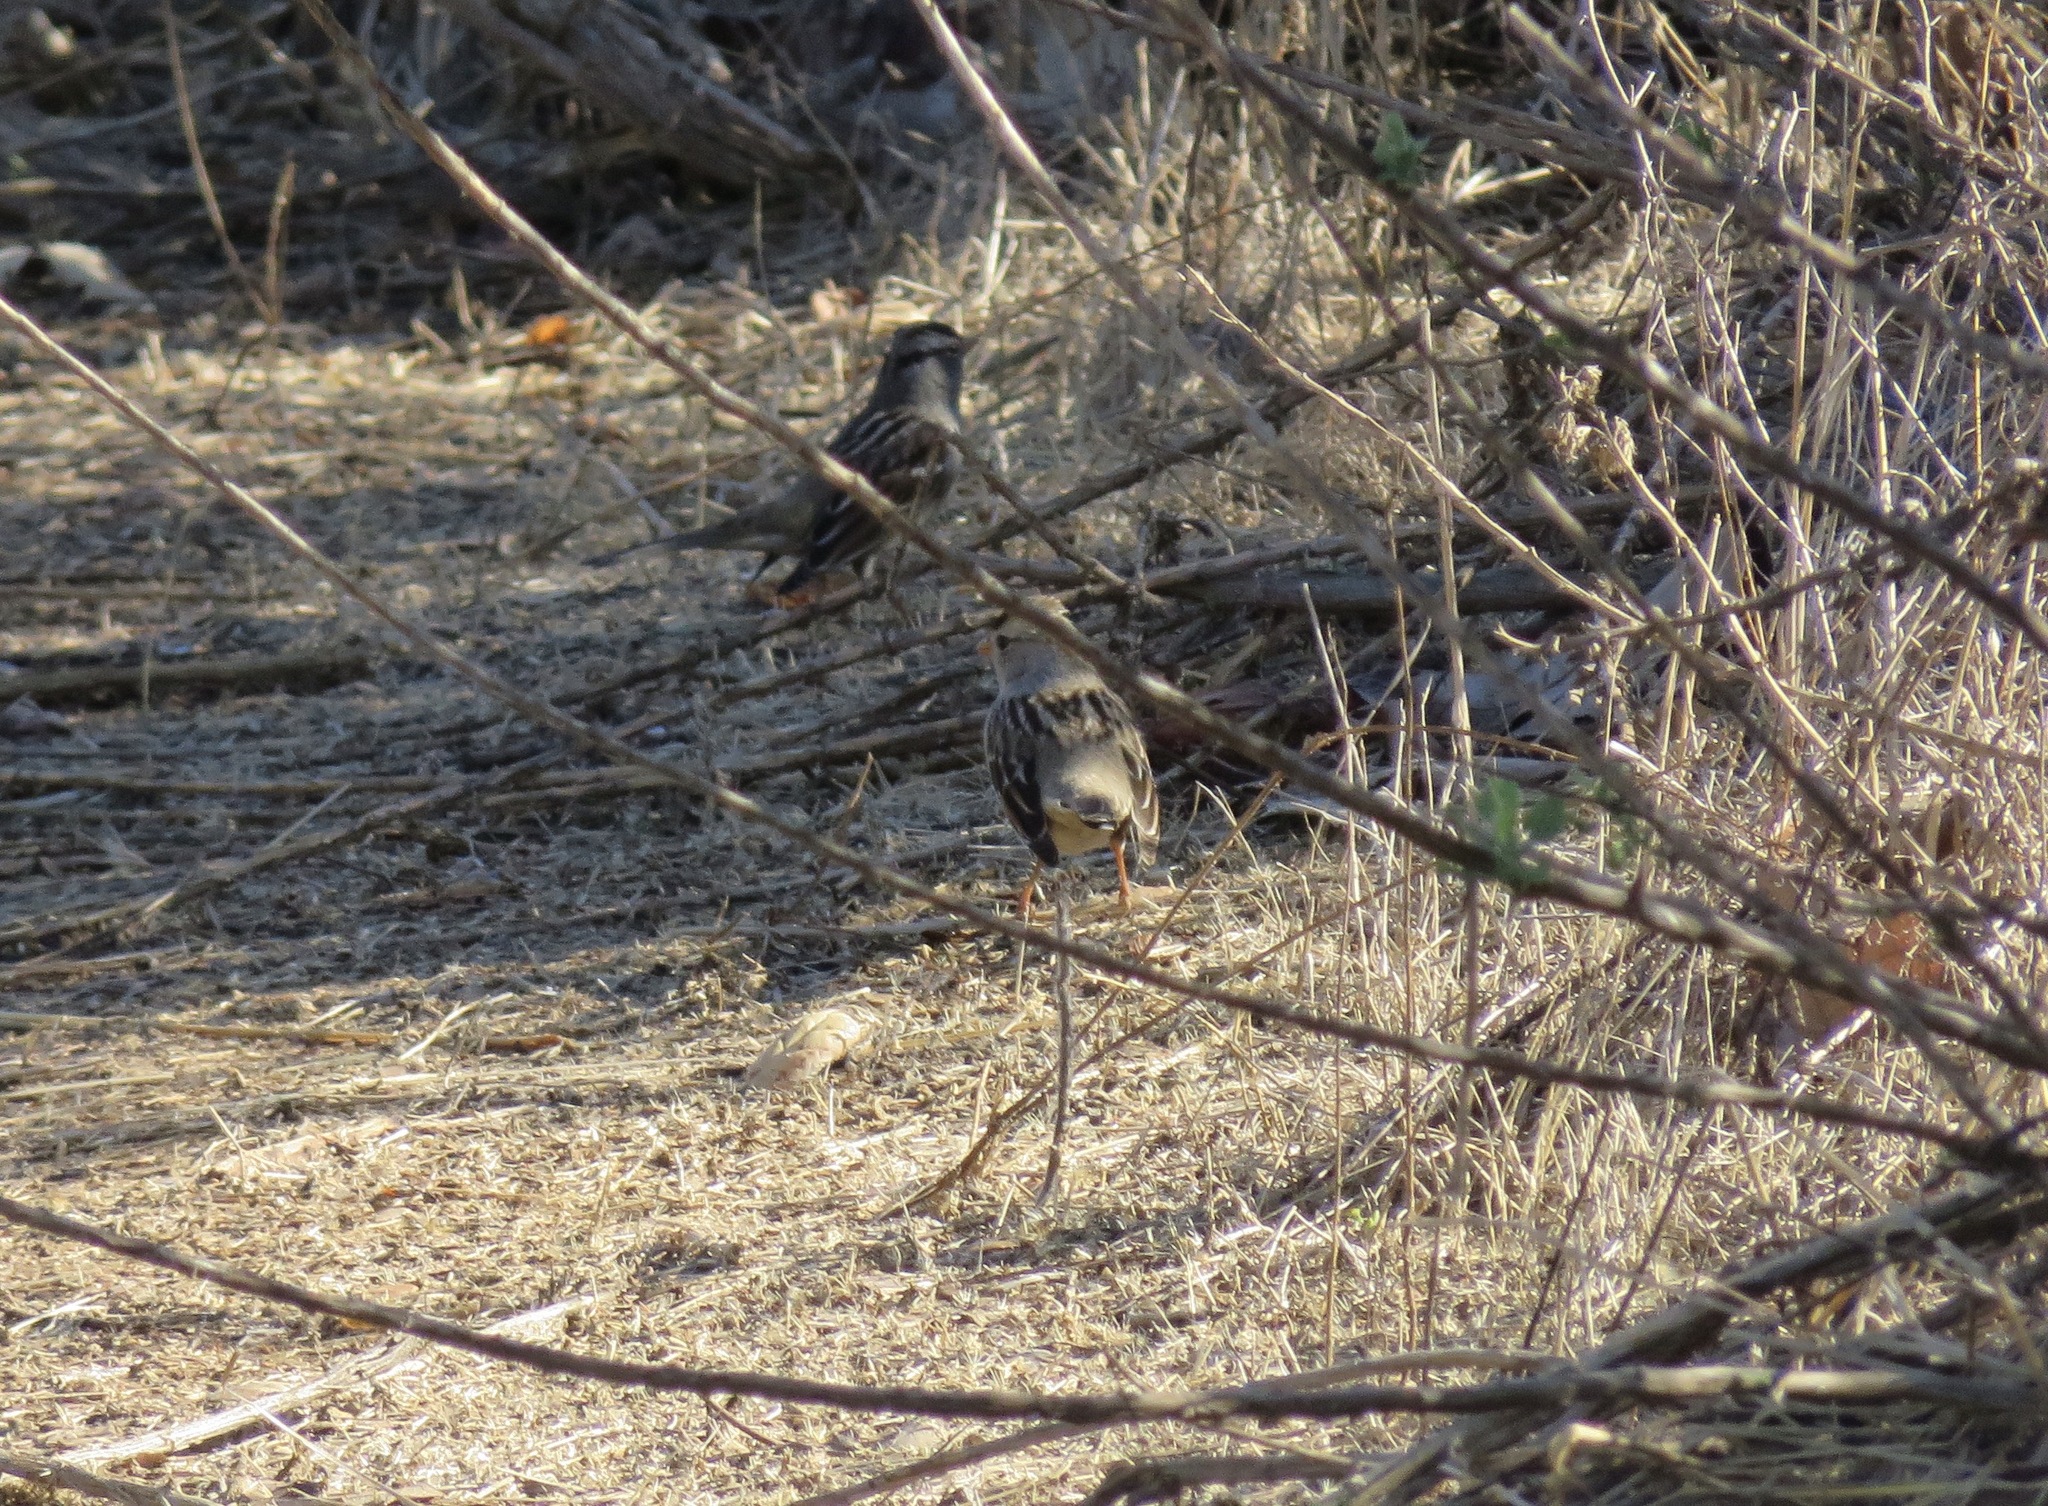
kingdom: Animalia
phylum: Chordata
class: Aves
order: Passeriformes
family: Passerellidae
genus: Zonotrichia
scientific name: Zonotrichia leucophrys
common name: White-crowned sparrow
